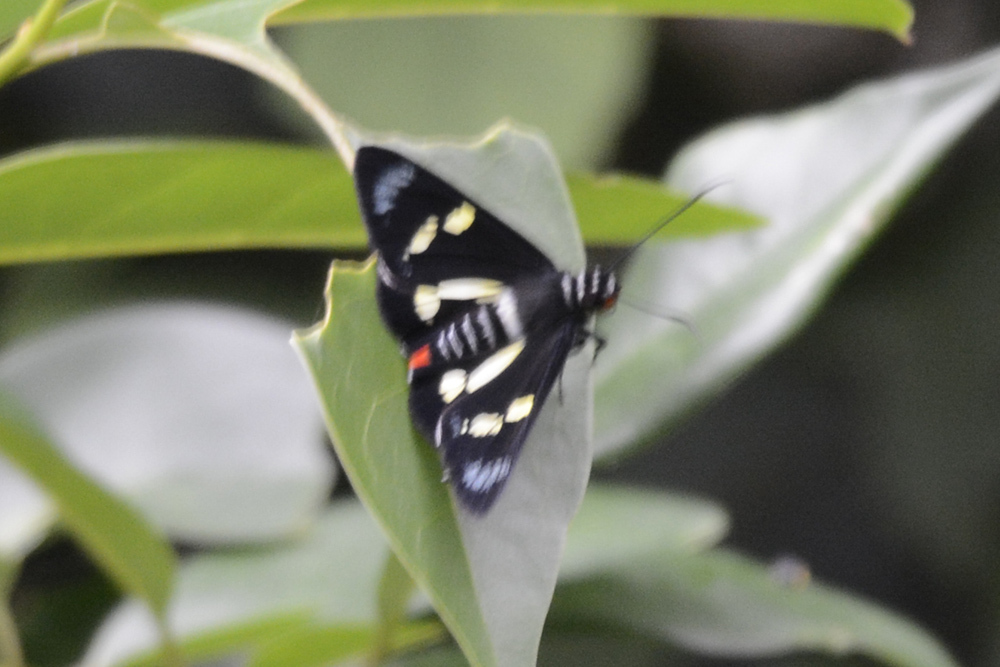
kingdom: Animalia
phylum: Arthropoda
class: Insecta
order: Lepidoptera
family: Hesperiidae
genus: Euschemon
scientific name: Euschemon rafflesia
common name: Regent skipper
